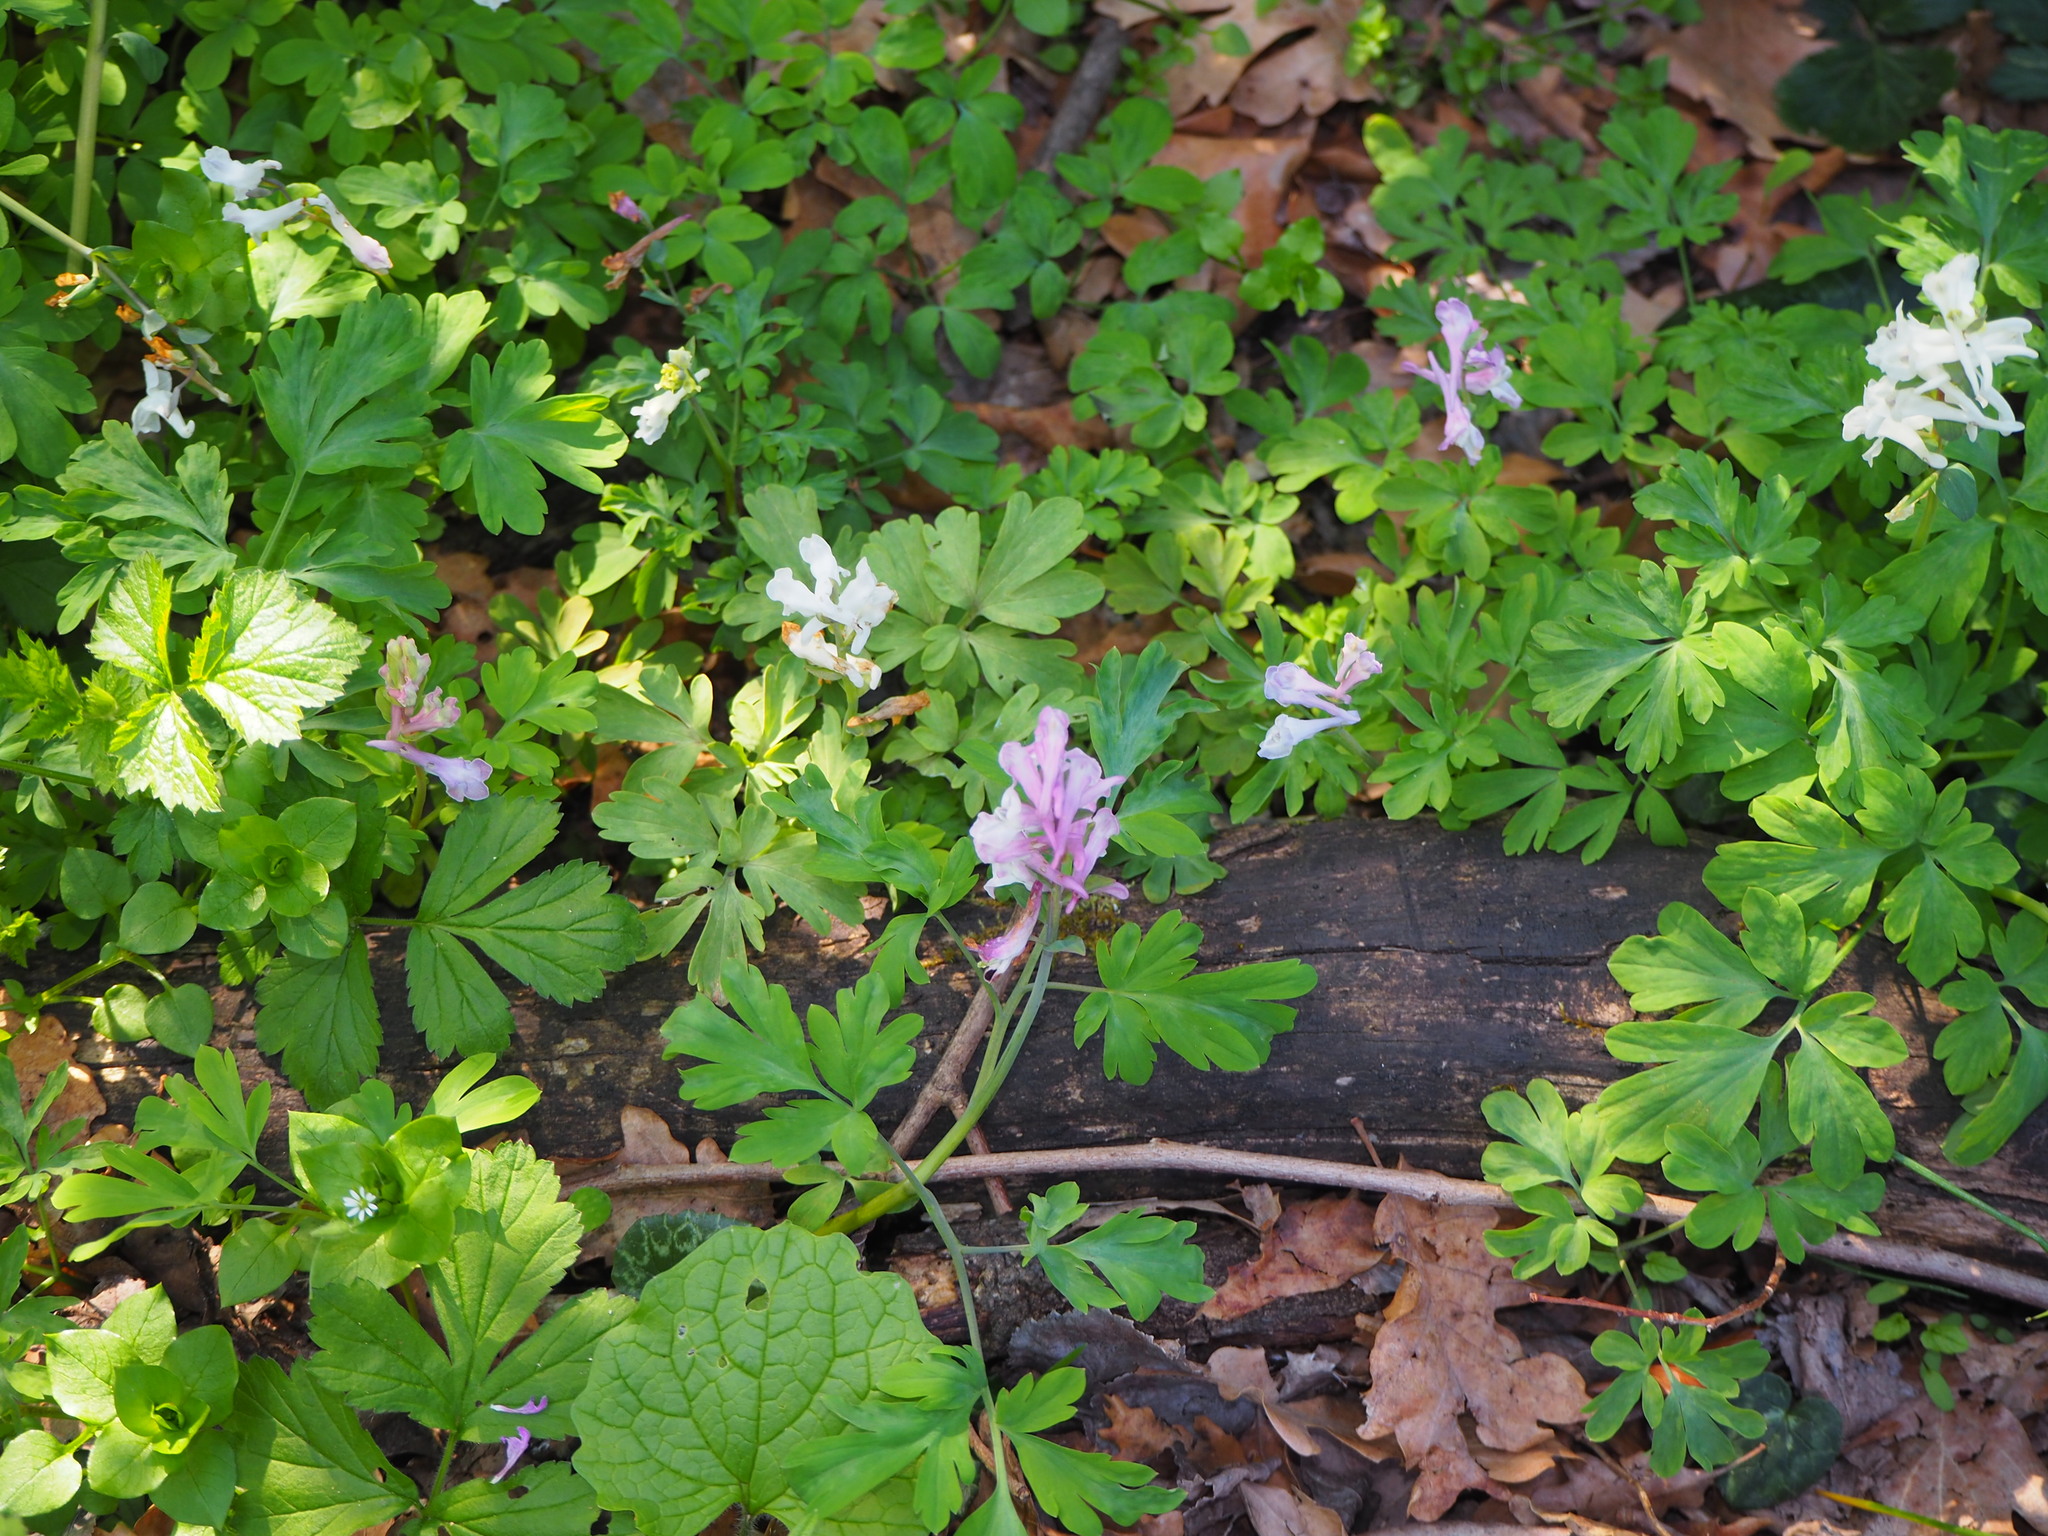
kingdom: Plantae
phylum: Tracheophyta
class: Magnoliopsida
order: Ranunculales
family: Papaveraceae
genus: Corydalis
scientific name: Corydalis cava
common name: Hollowroot
